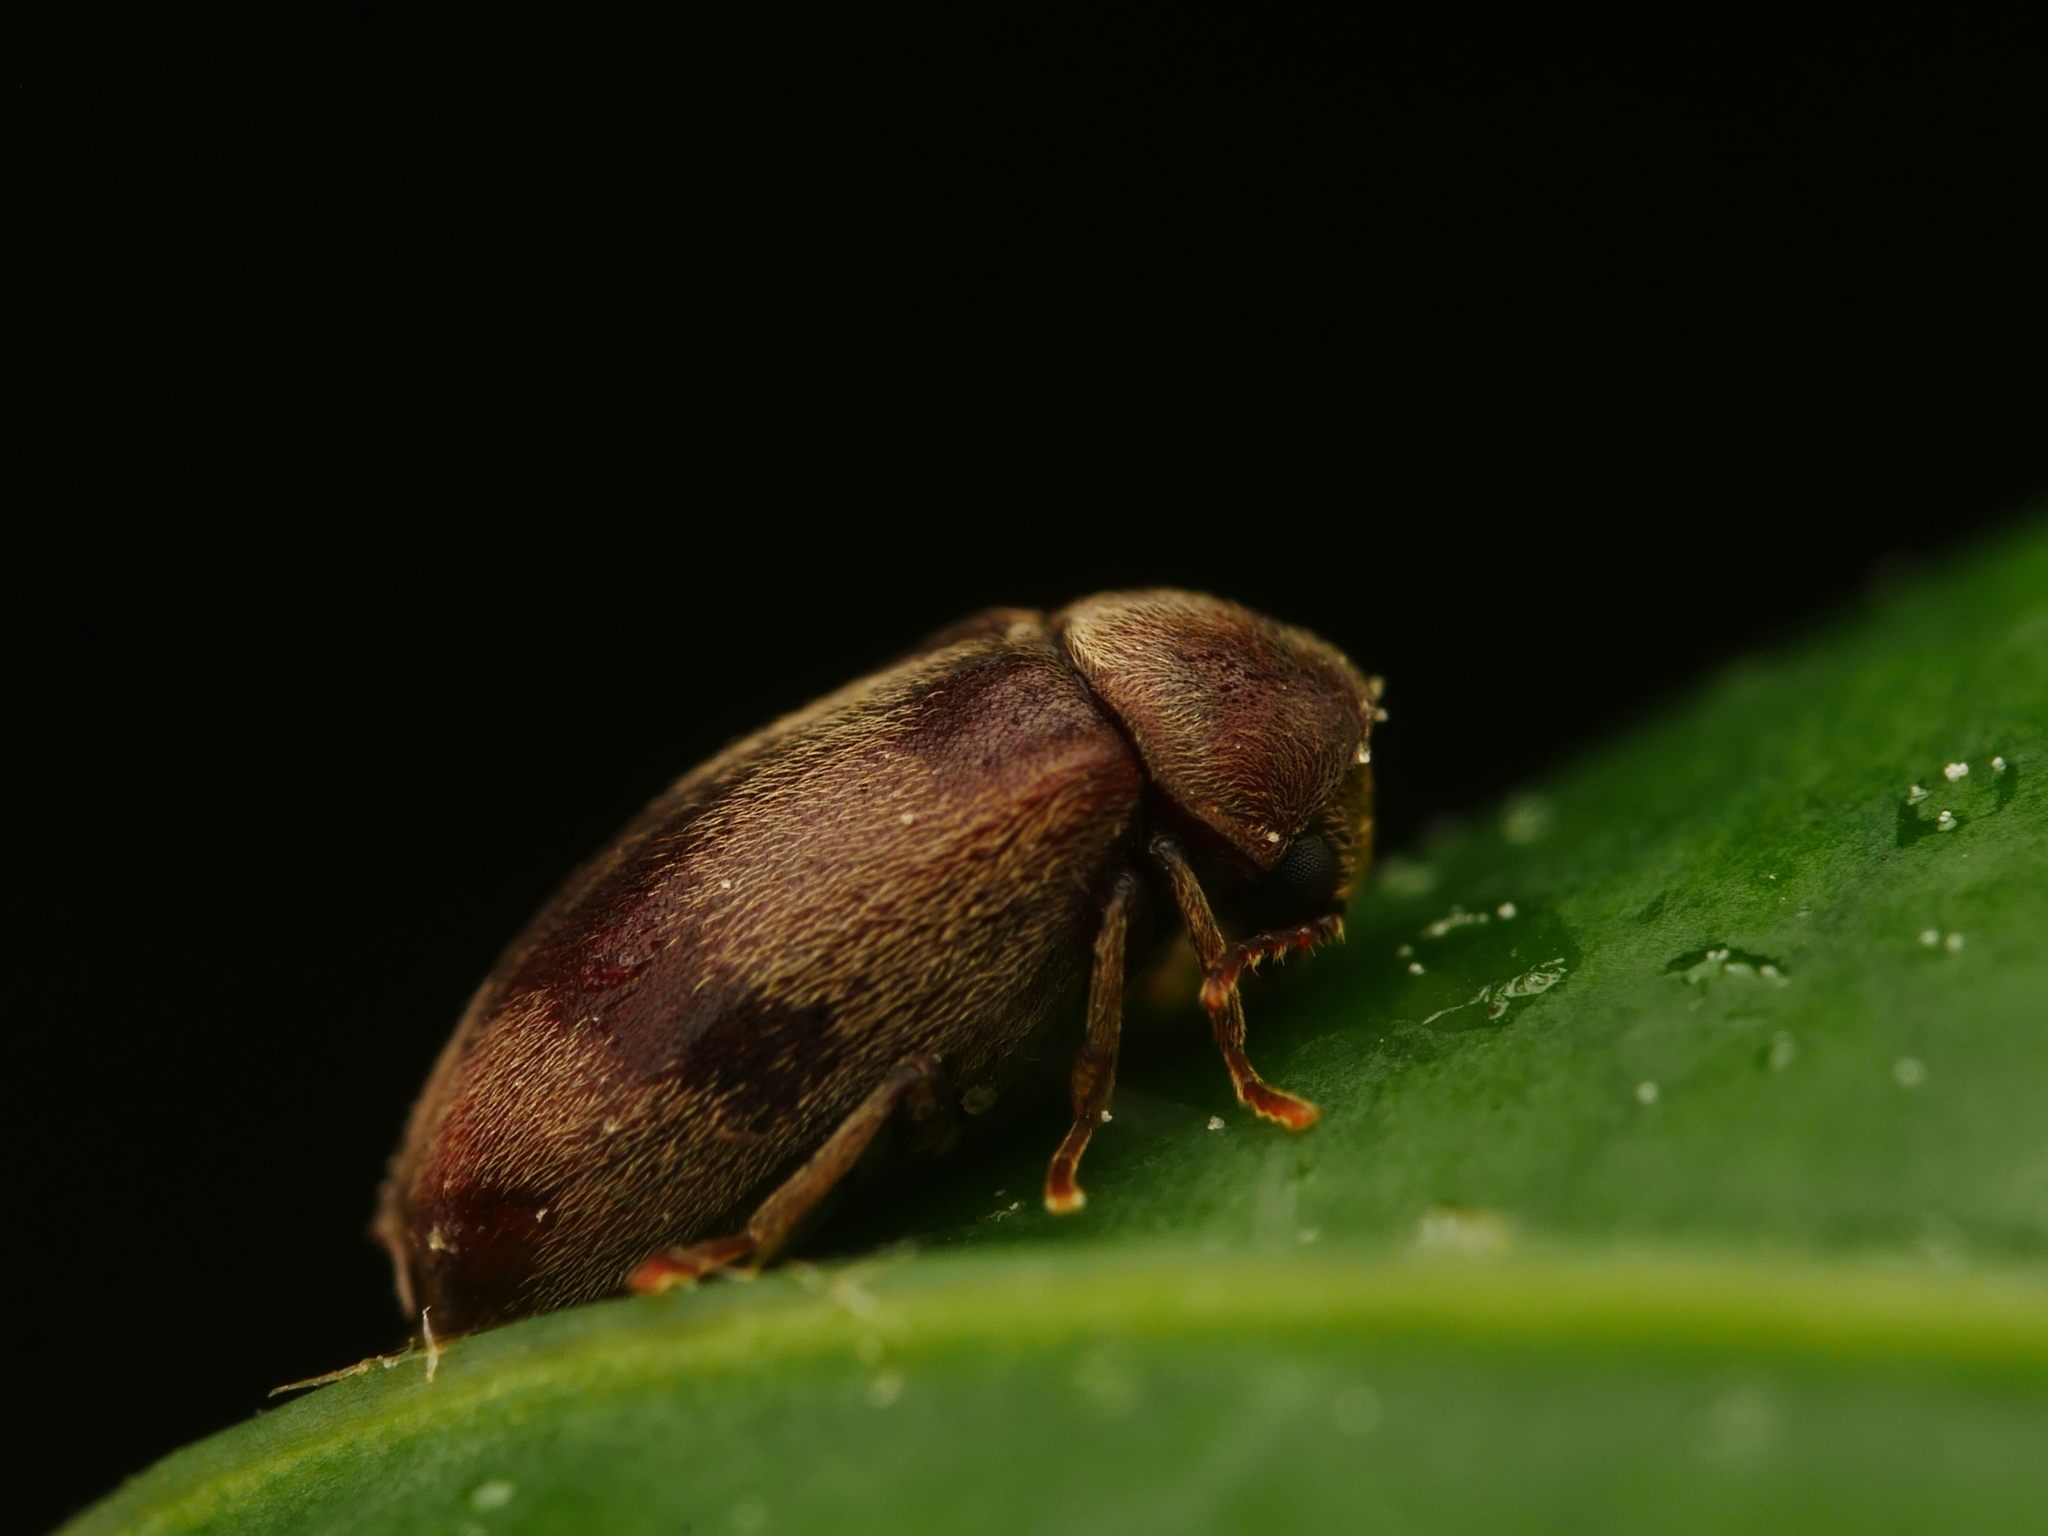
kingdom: Animalia
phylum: Arthropoda
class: Insecta
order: Coleoptera
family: Ptinidae
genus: Ochina
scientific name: Ochina ptinoides
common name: Ivy boring beetle
